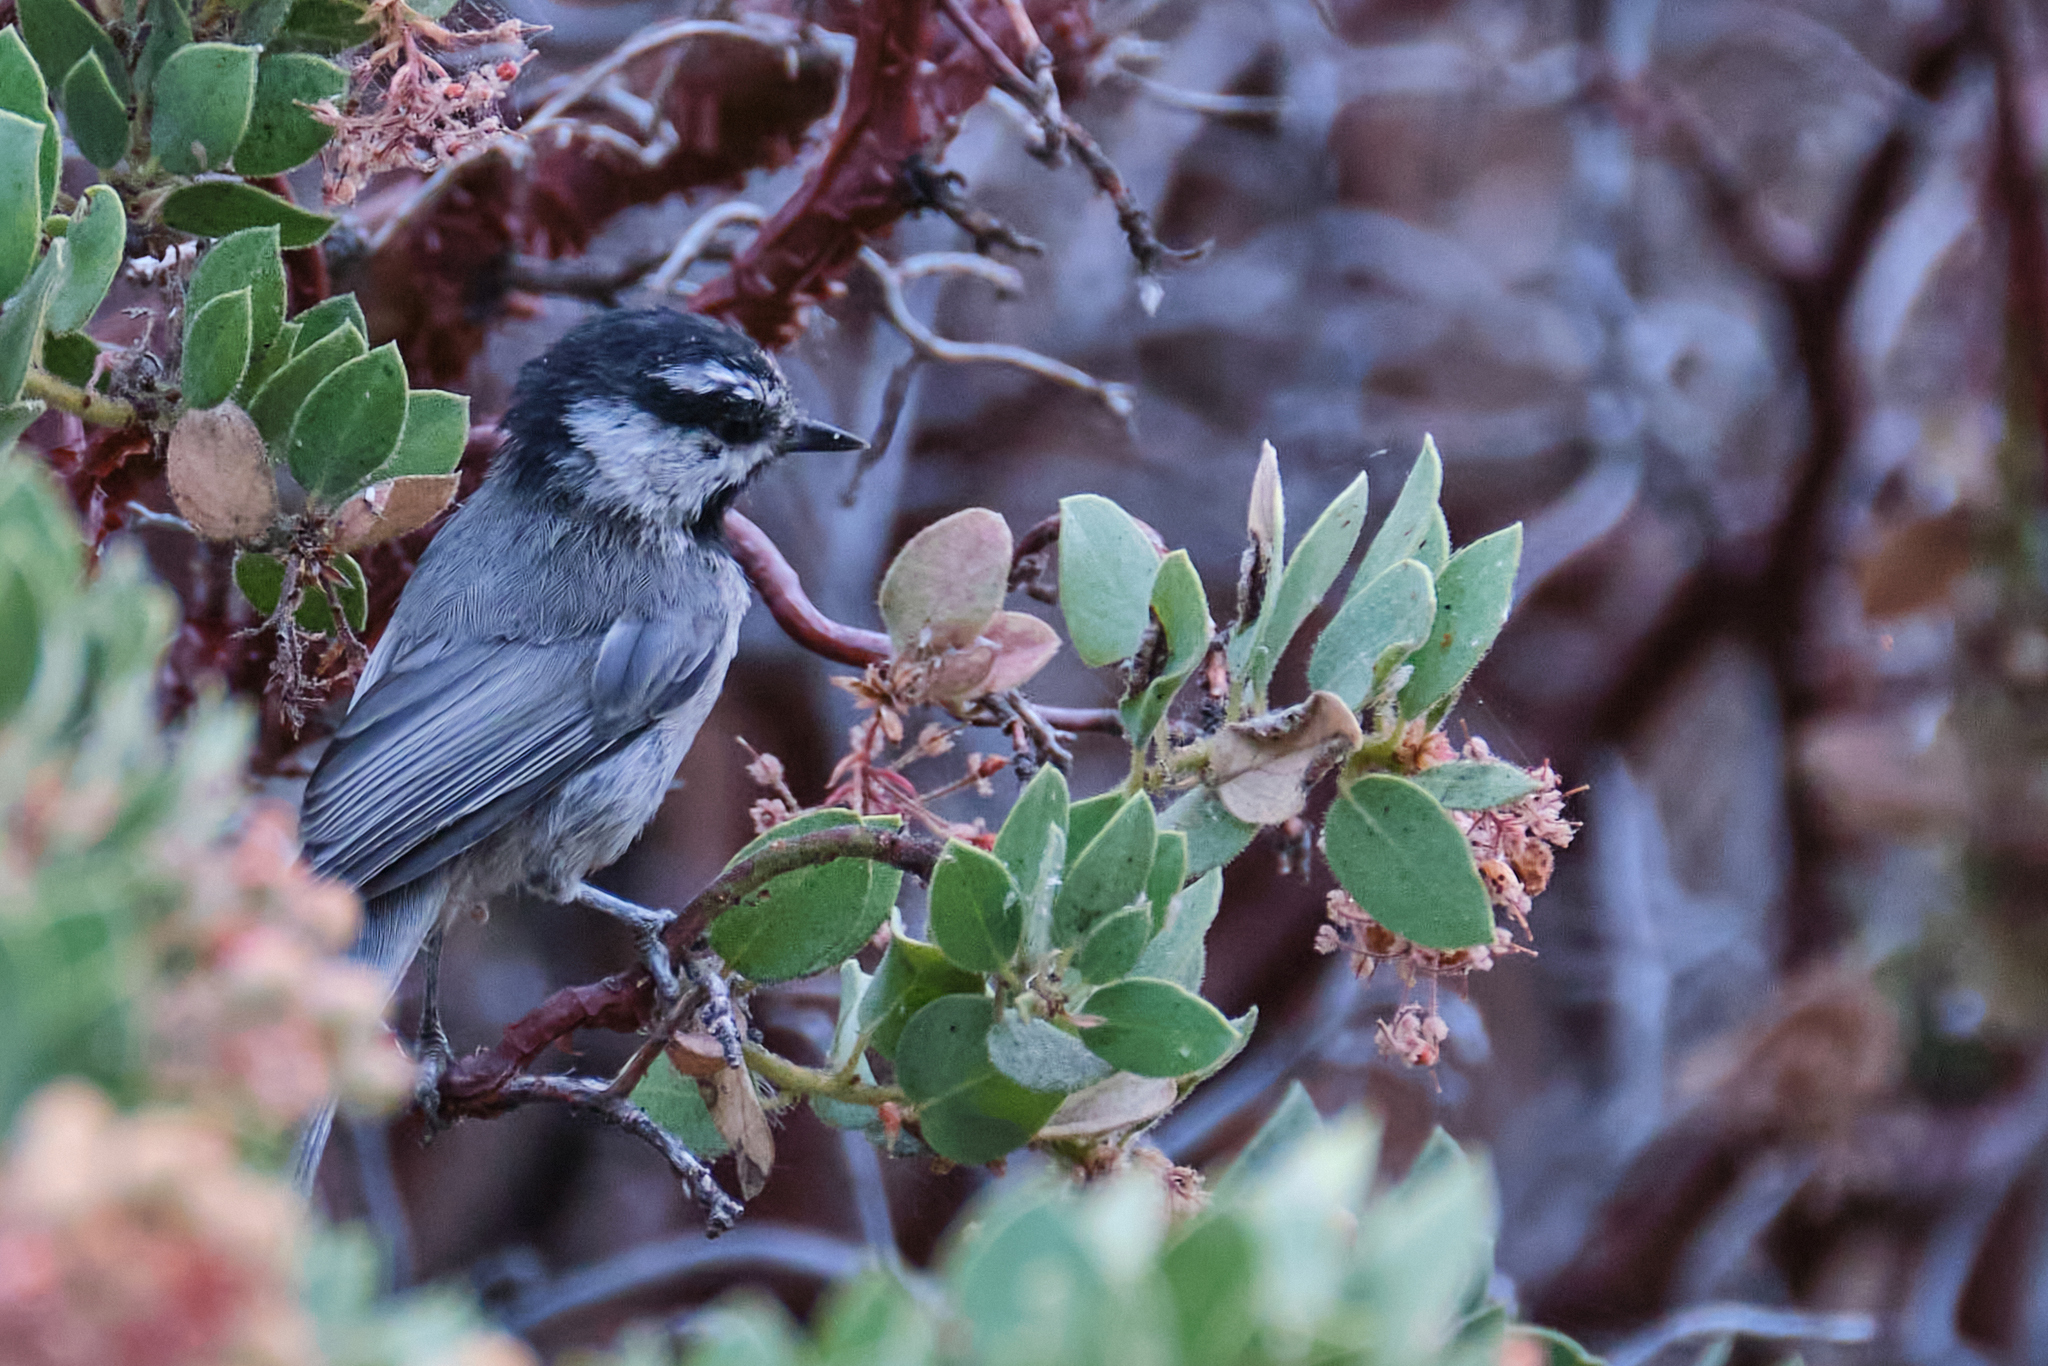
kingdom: Animalia
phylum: Chordata
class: Aves
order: Passeriformes
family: Paridae
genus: Poecile
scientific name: Poecile gambeli
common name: Mountain chickadee
